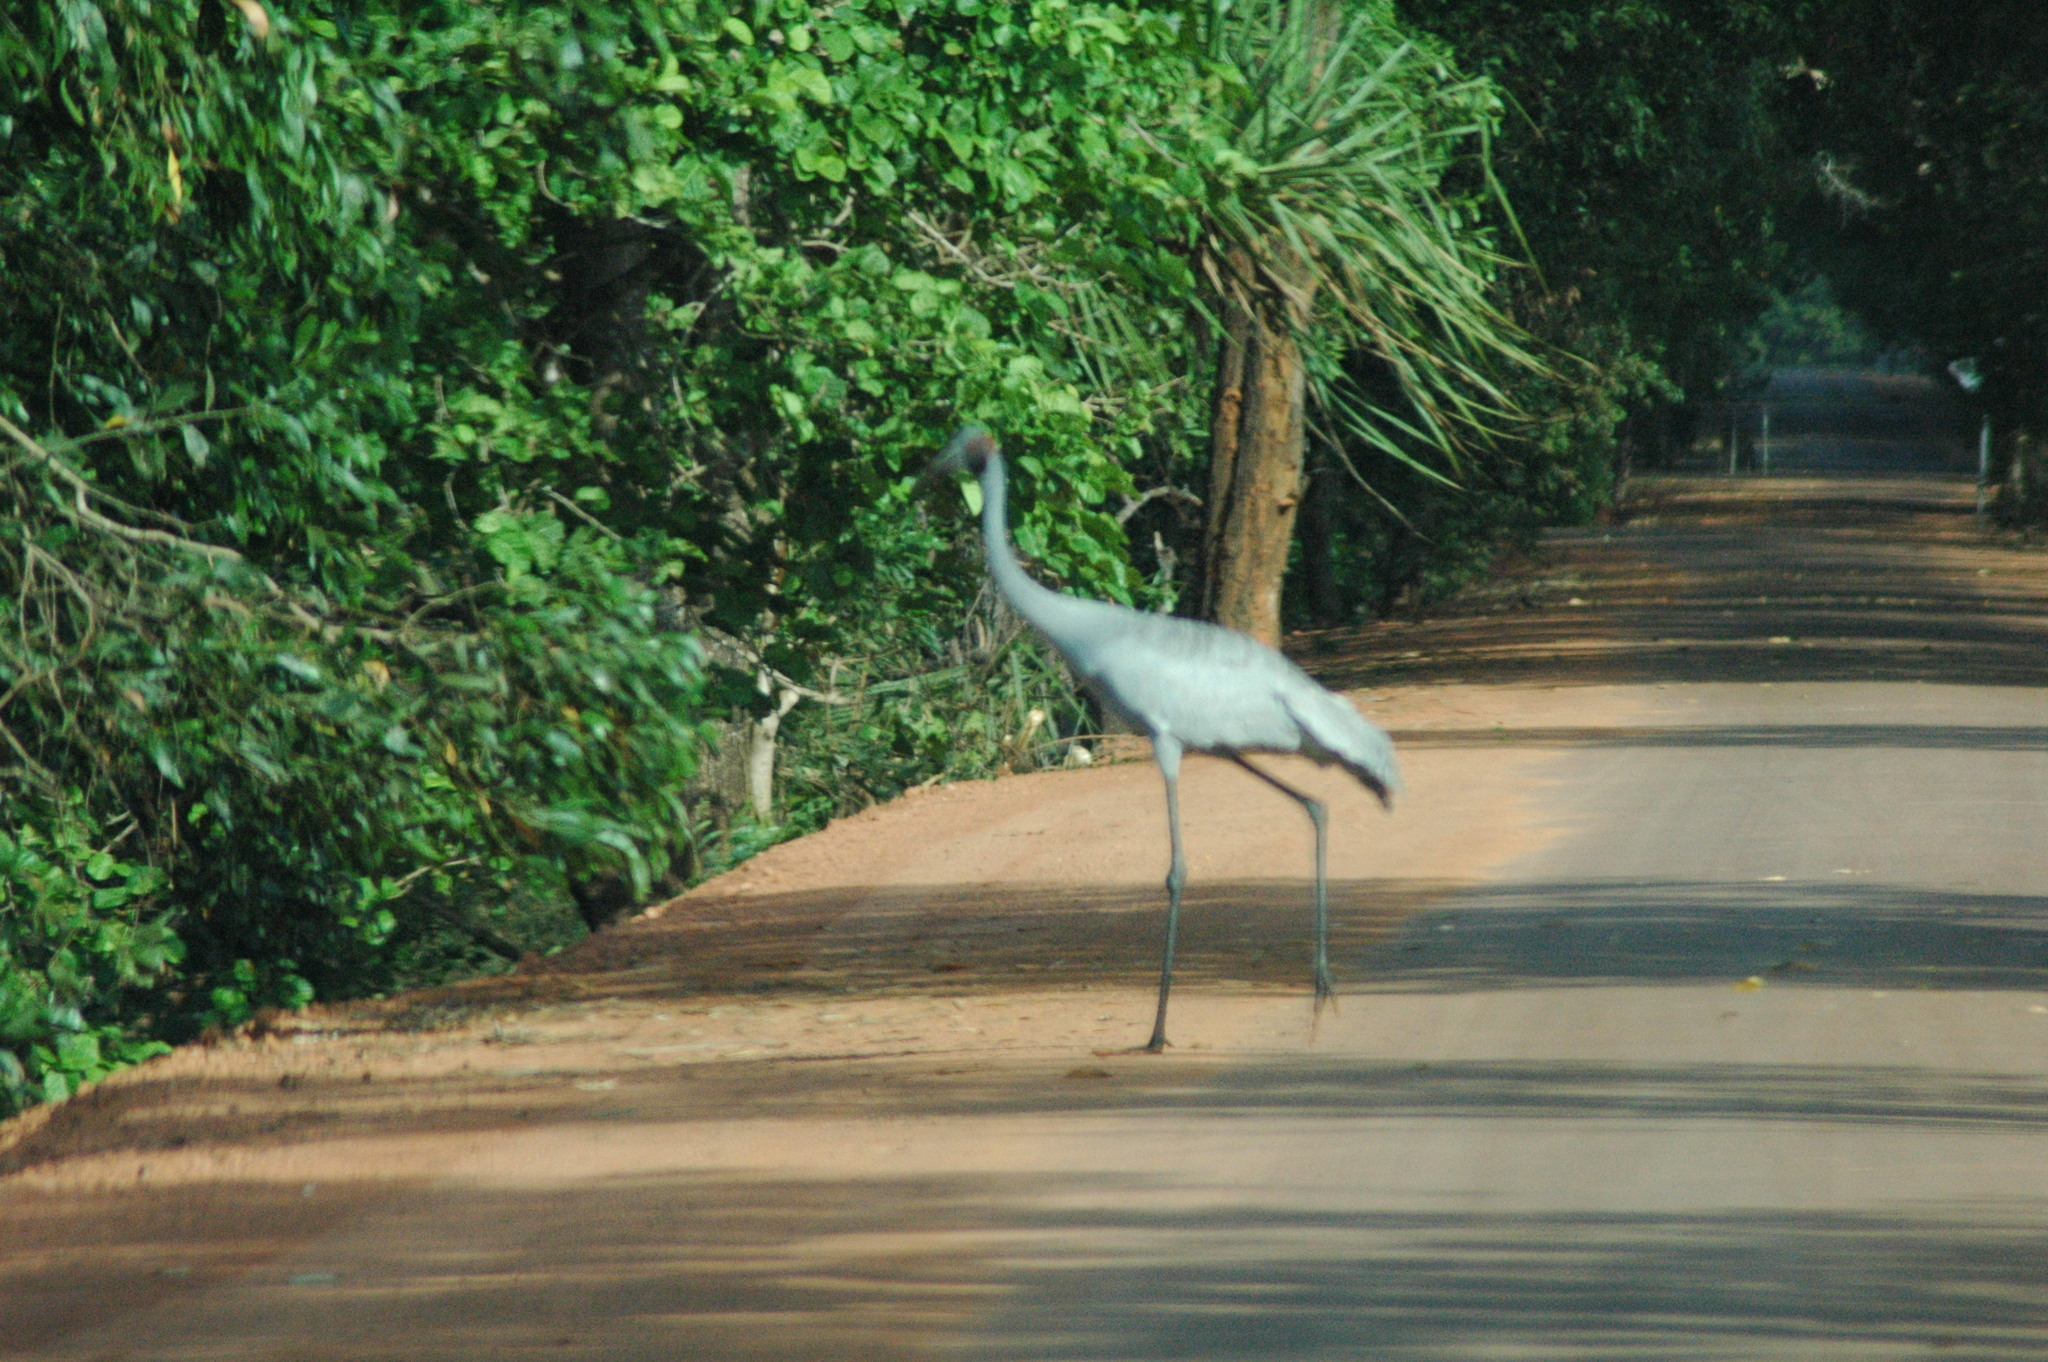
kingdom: Animalia
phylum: Chordata
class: Aves
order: Gruiformes
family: Gruidae
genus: Grus
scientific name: Grus rubicunda
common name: Brolga
